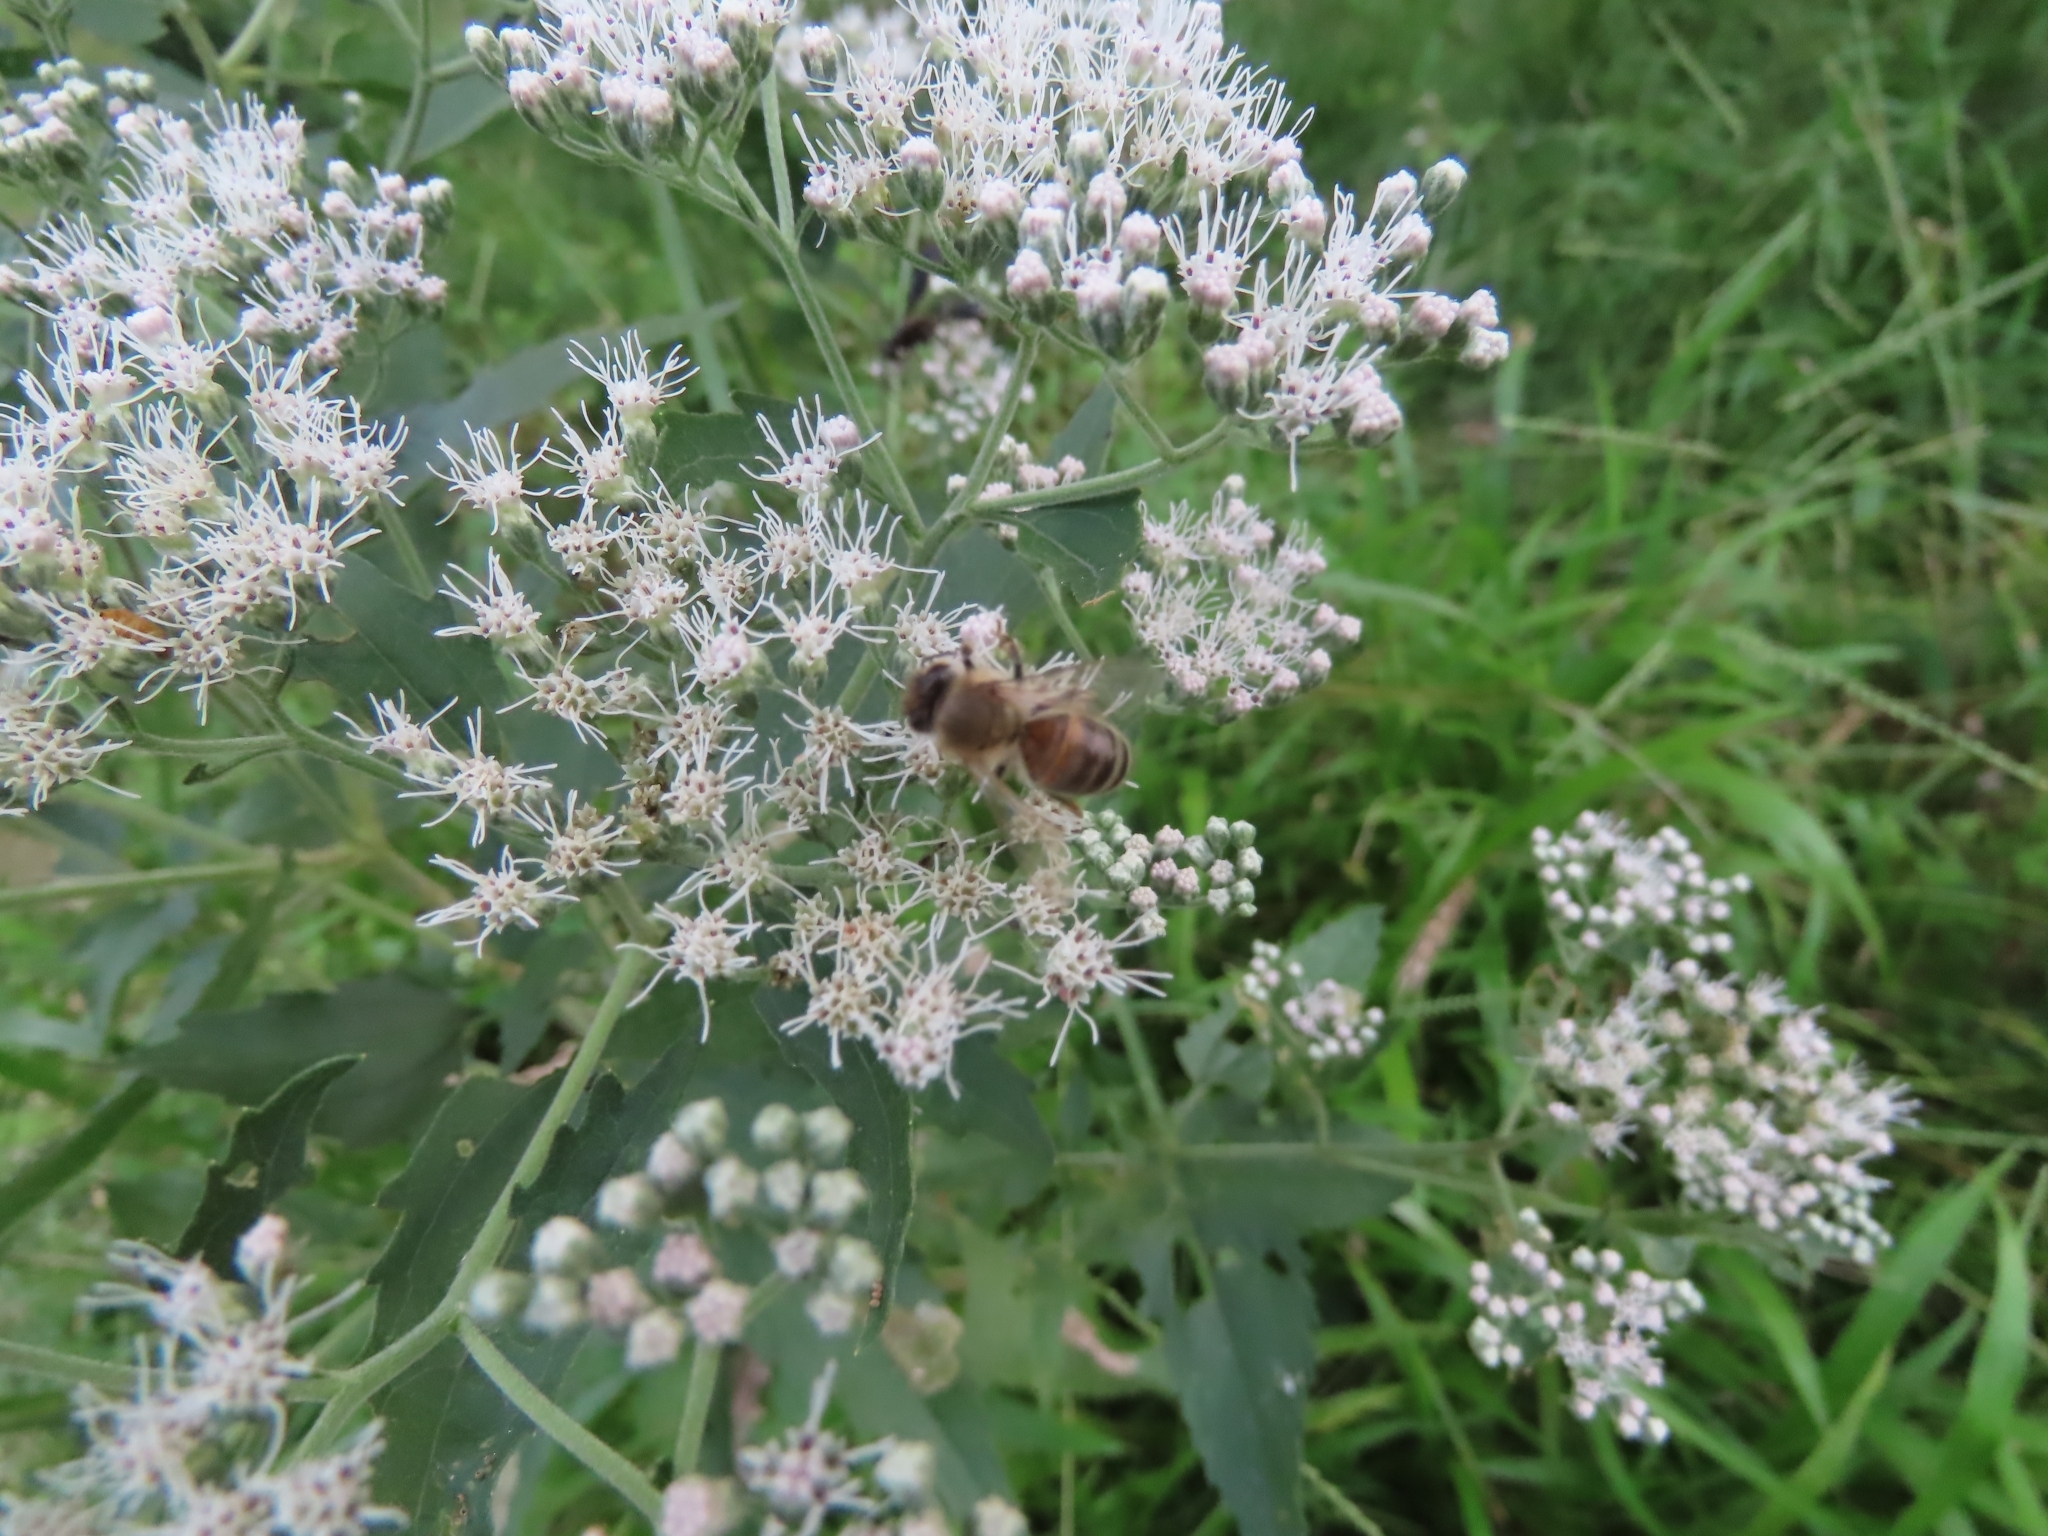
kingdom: Animalia
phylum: Arthropoda
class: Insecta
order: Hymenoptera
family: Apidae
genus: Apis
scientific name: Apis mellifera
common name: Honey bee
